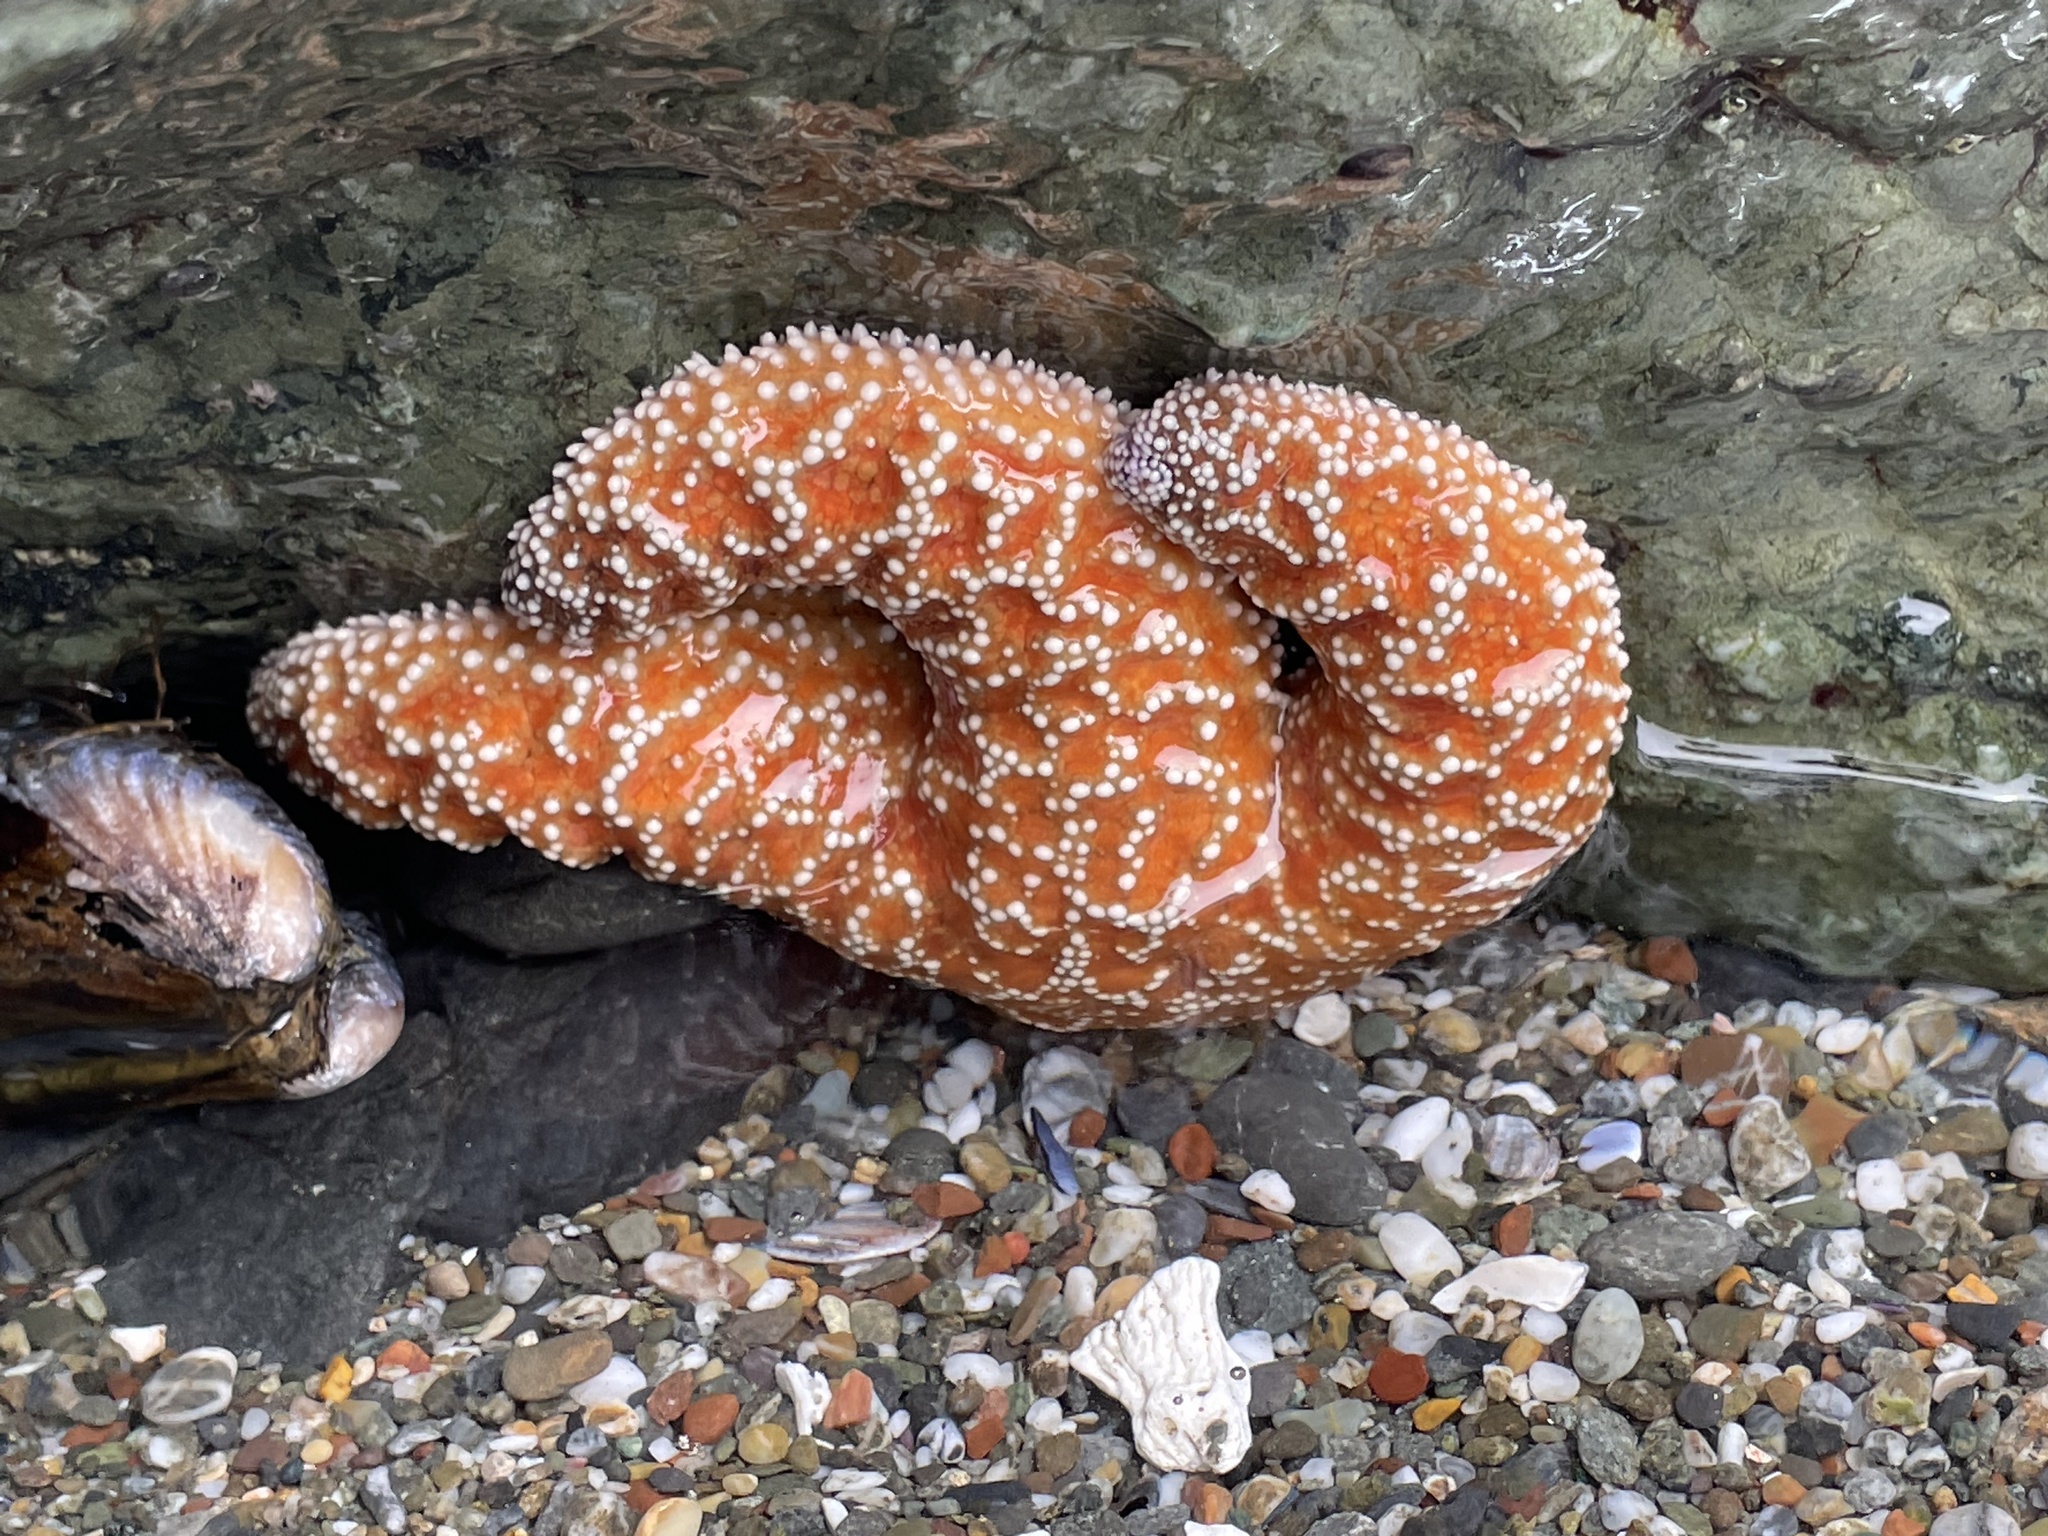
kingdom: Animalia
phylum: Echinodermata
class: Asteroidea
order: Forcipulatida
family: Asteriidae
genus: Pisaster
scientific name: Pisaster ochraceus
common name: Ochre stars
